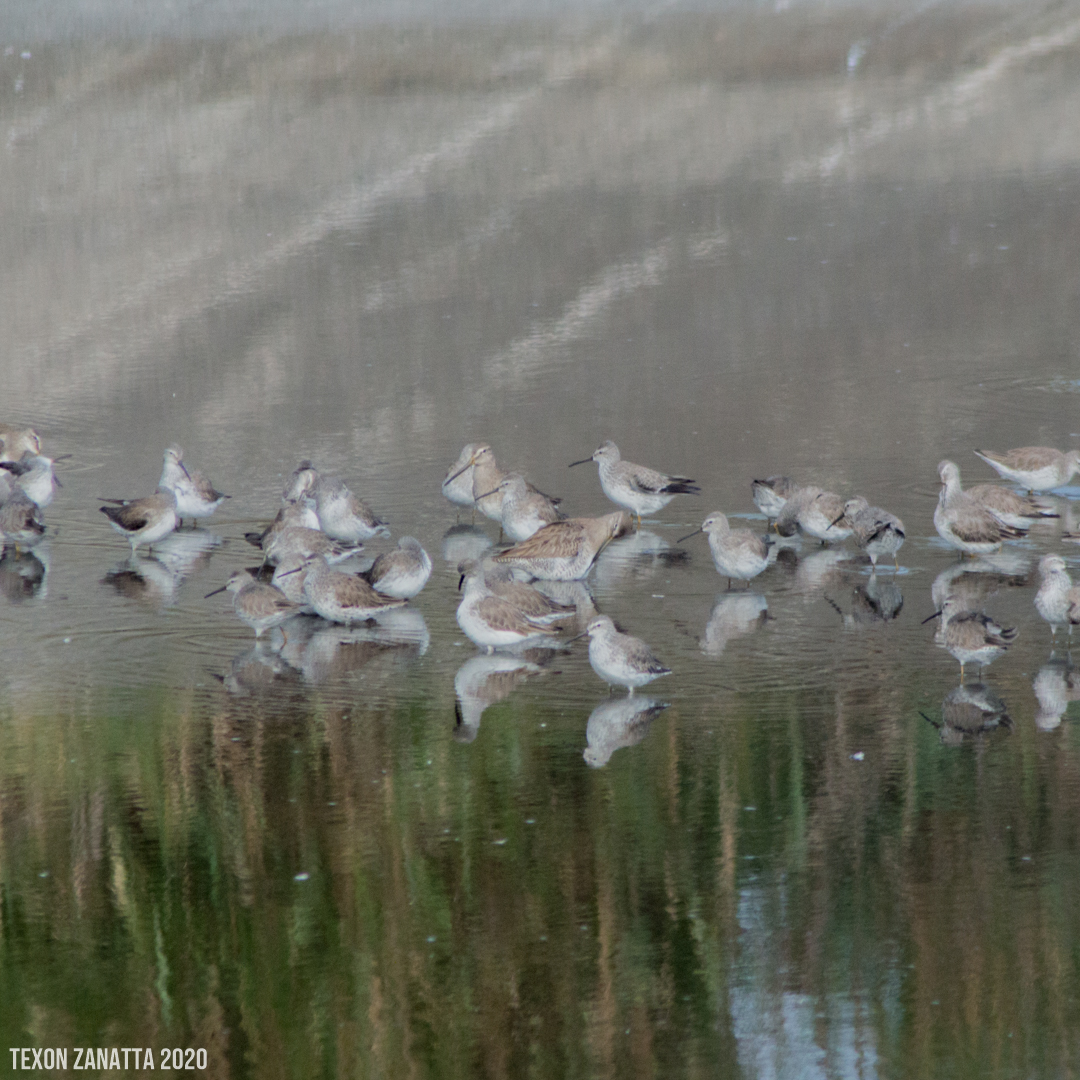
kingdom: Animalia
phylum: Chordata
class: Aves
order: Charadriiformes
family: Scolopacidae
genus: Calidris
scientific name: Calidris himantopus
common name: Stilt sandpiper
